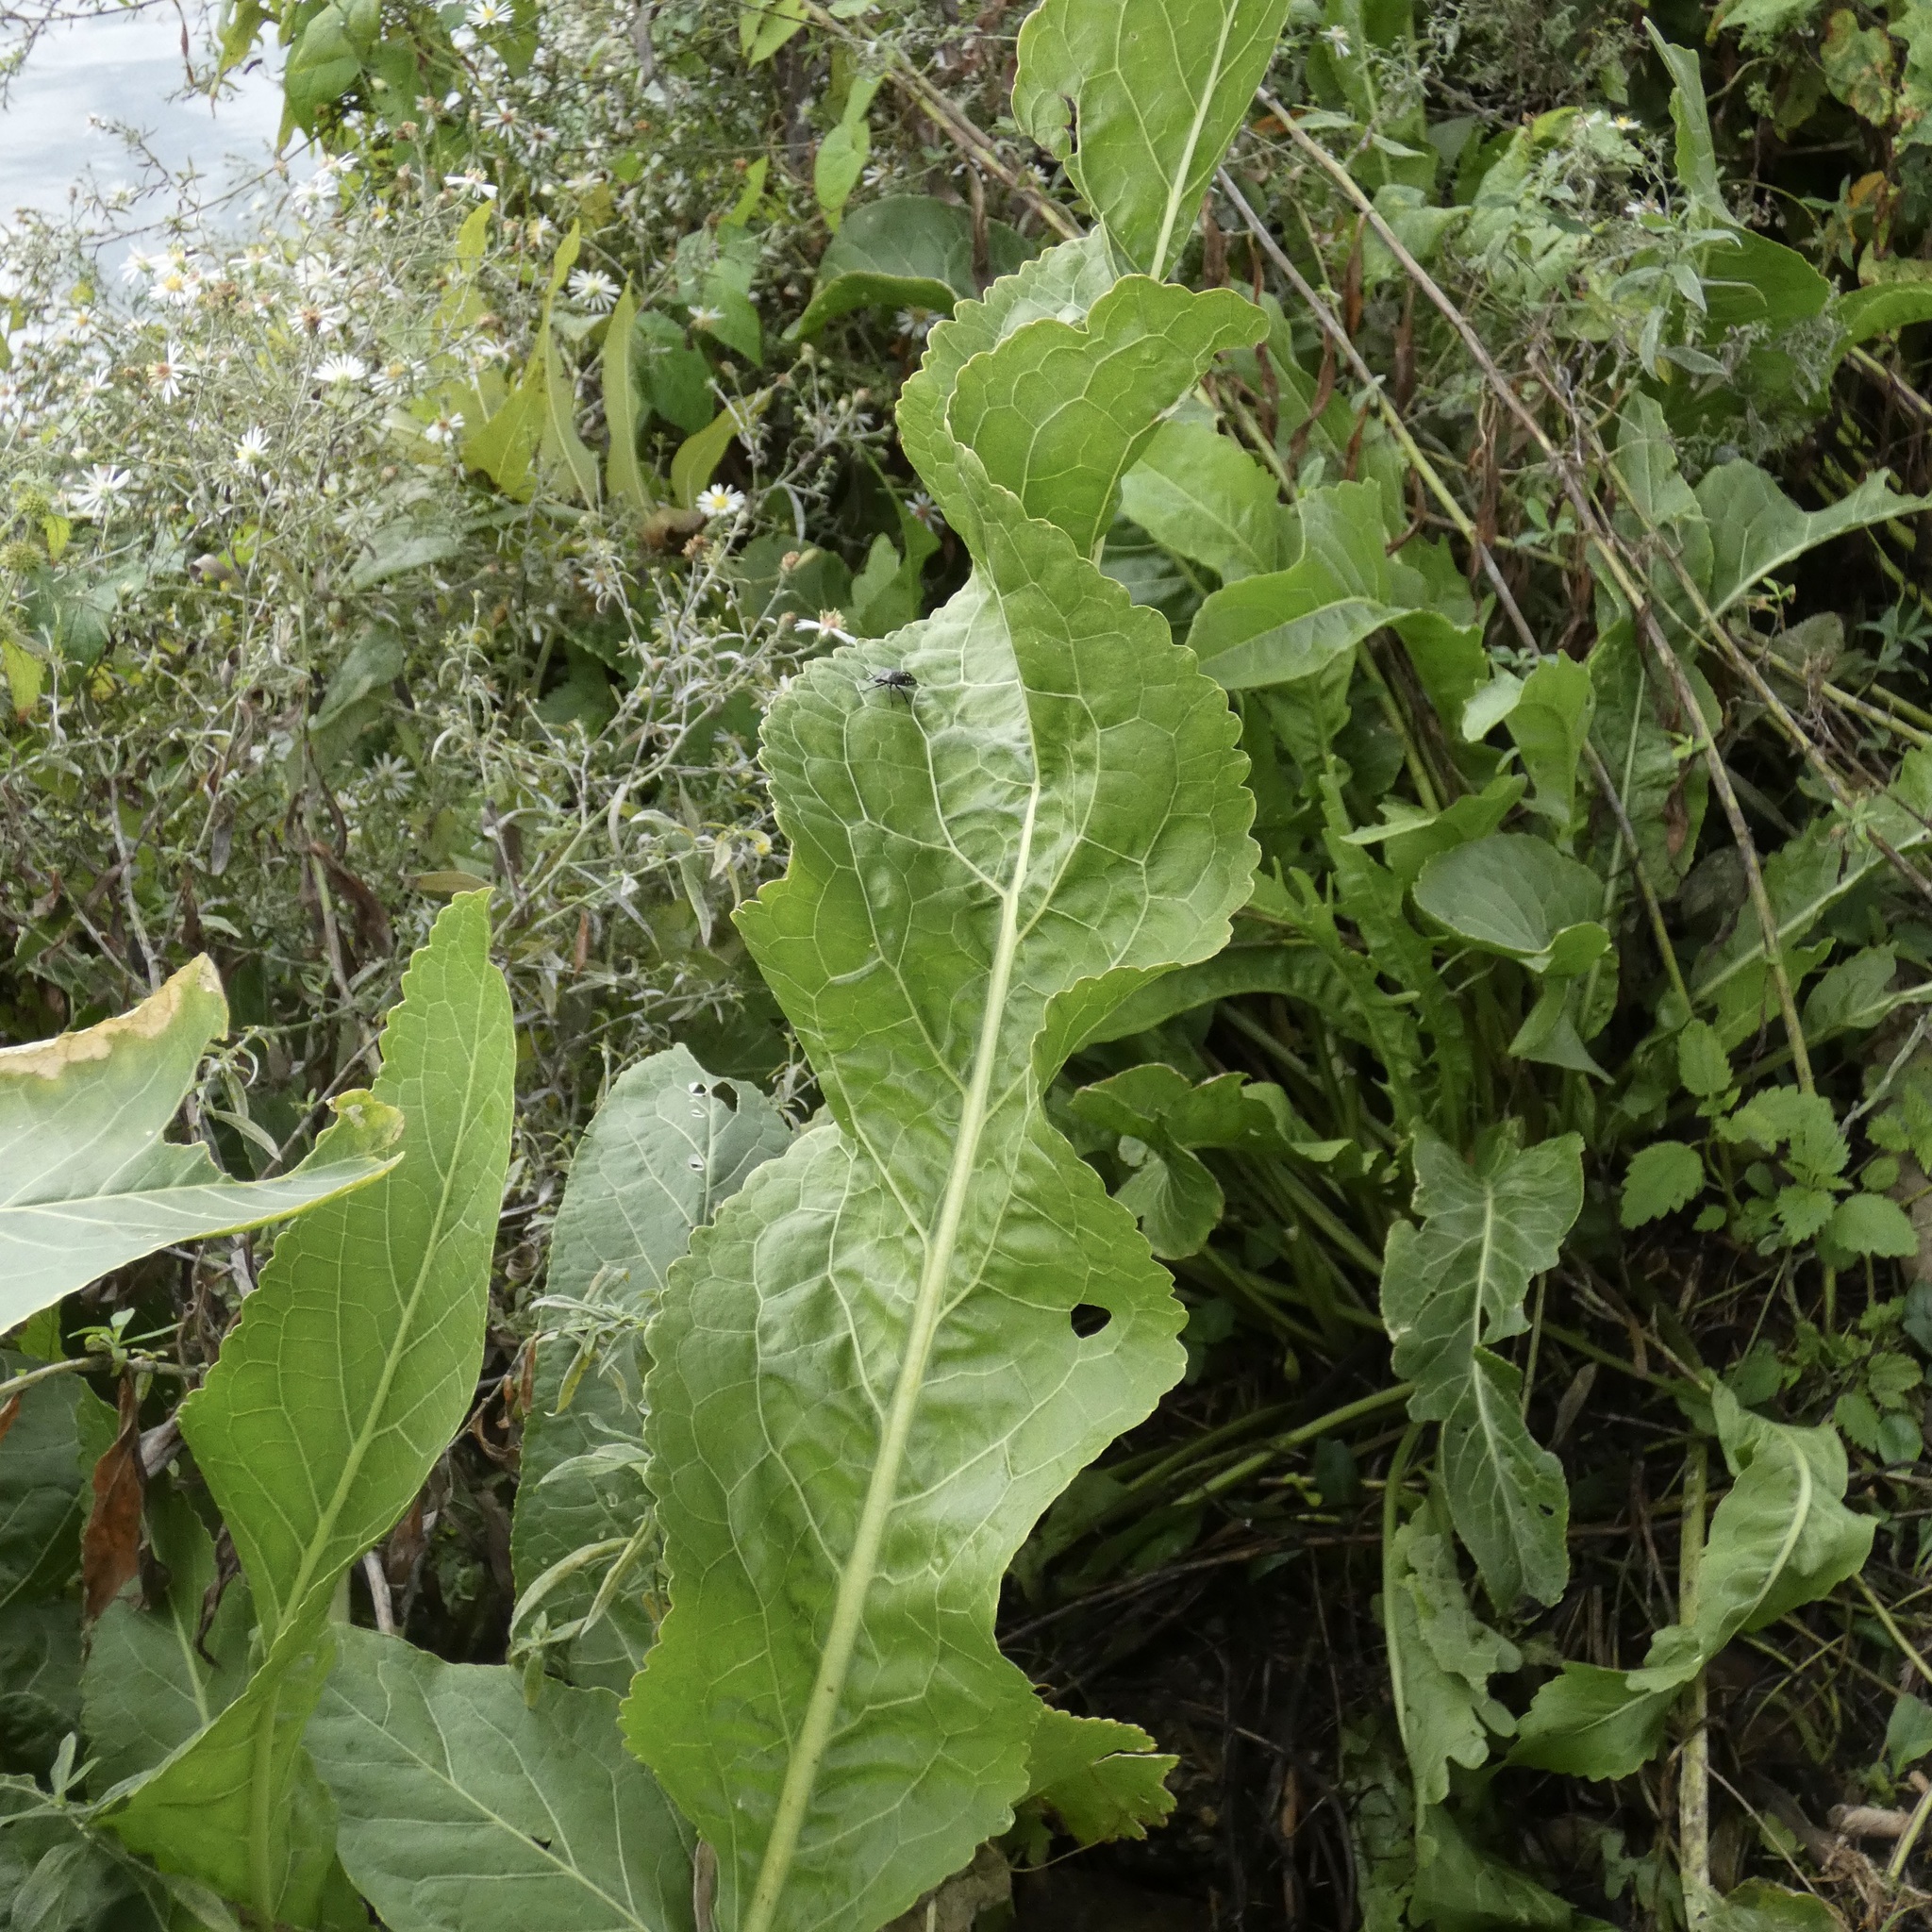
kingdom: Plantae
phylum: Tracheophyta
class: Magnoliopsida
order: Brassicales
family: Brassicaceae
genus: Armoracia
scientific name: Armoracia rusticana
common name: Horseradish
